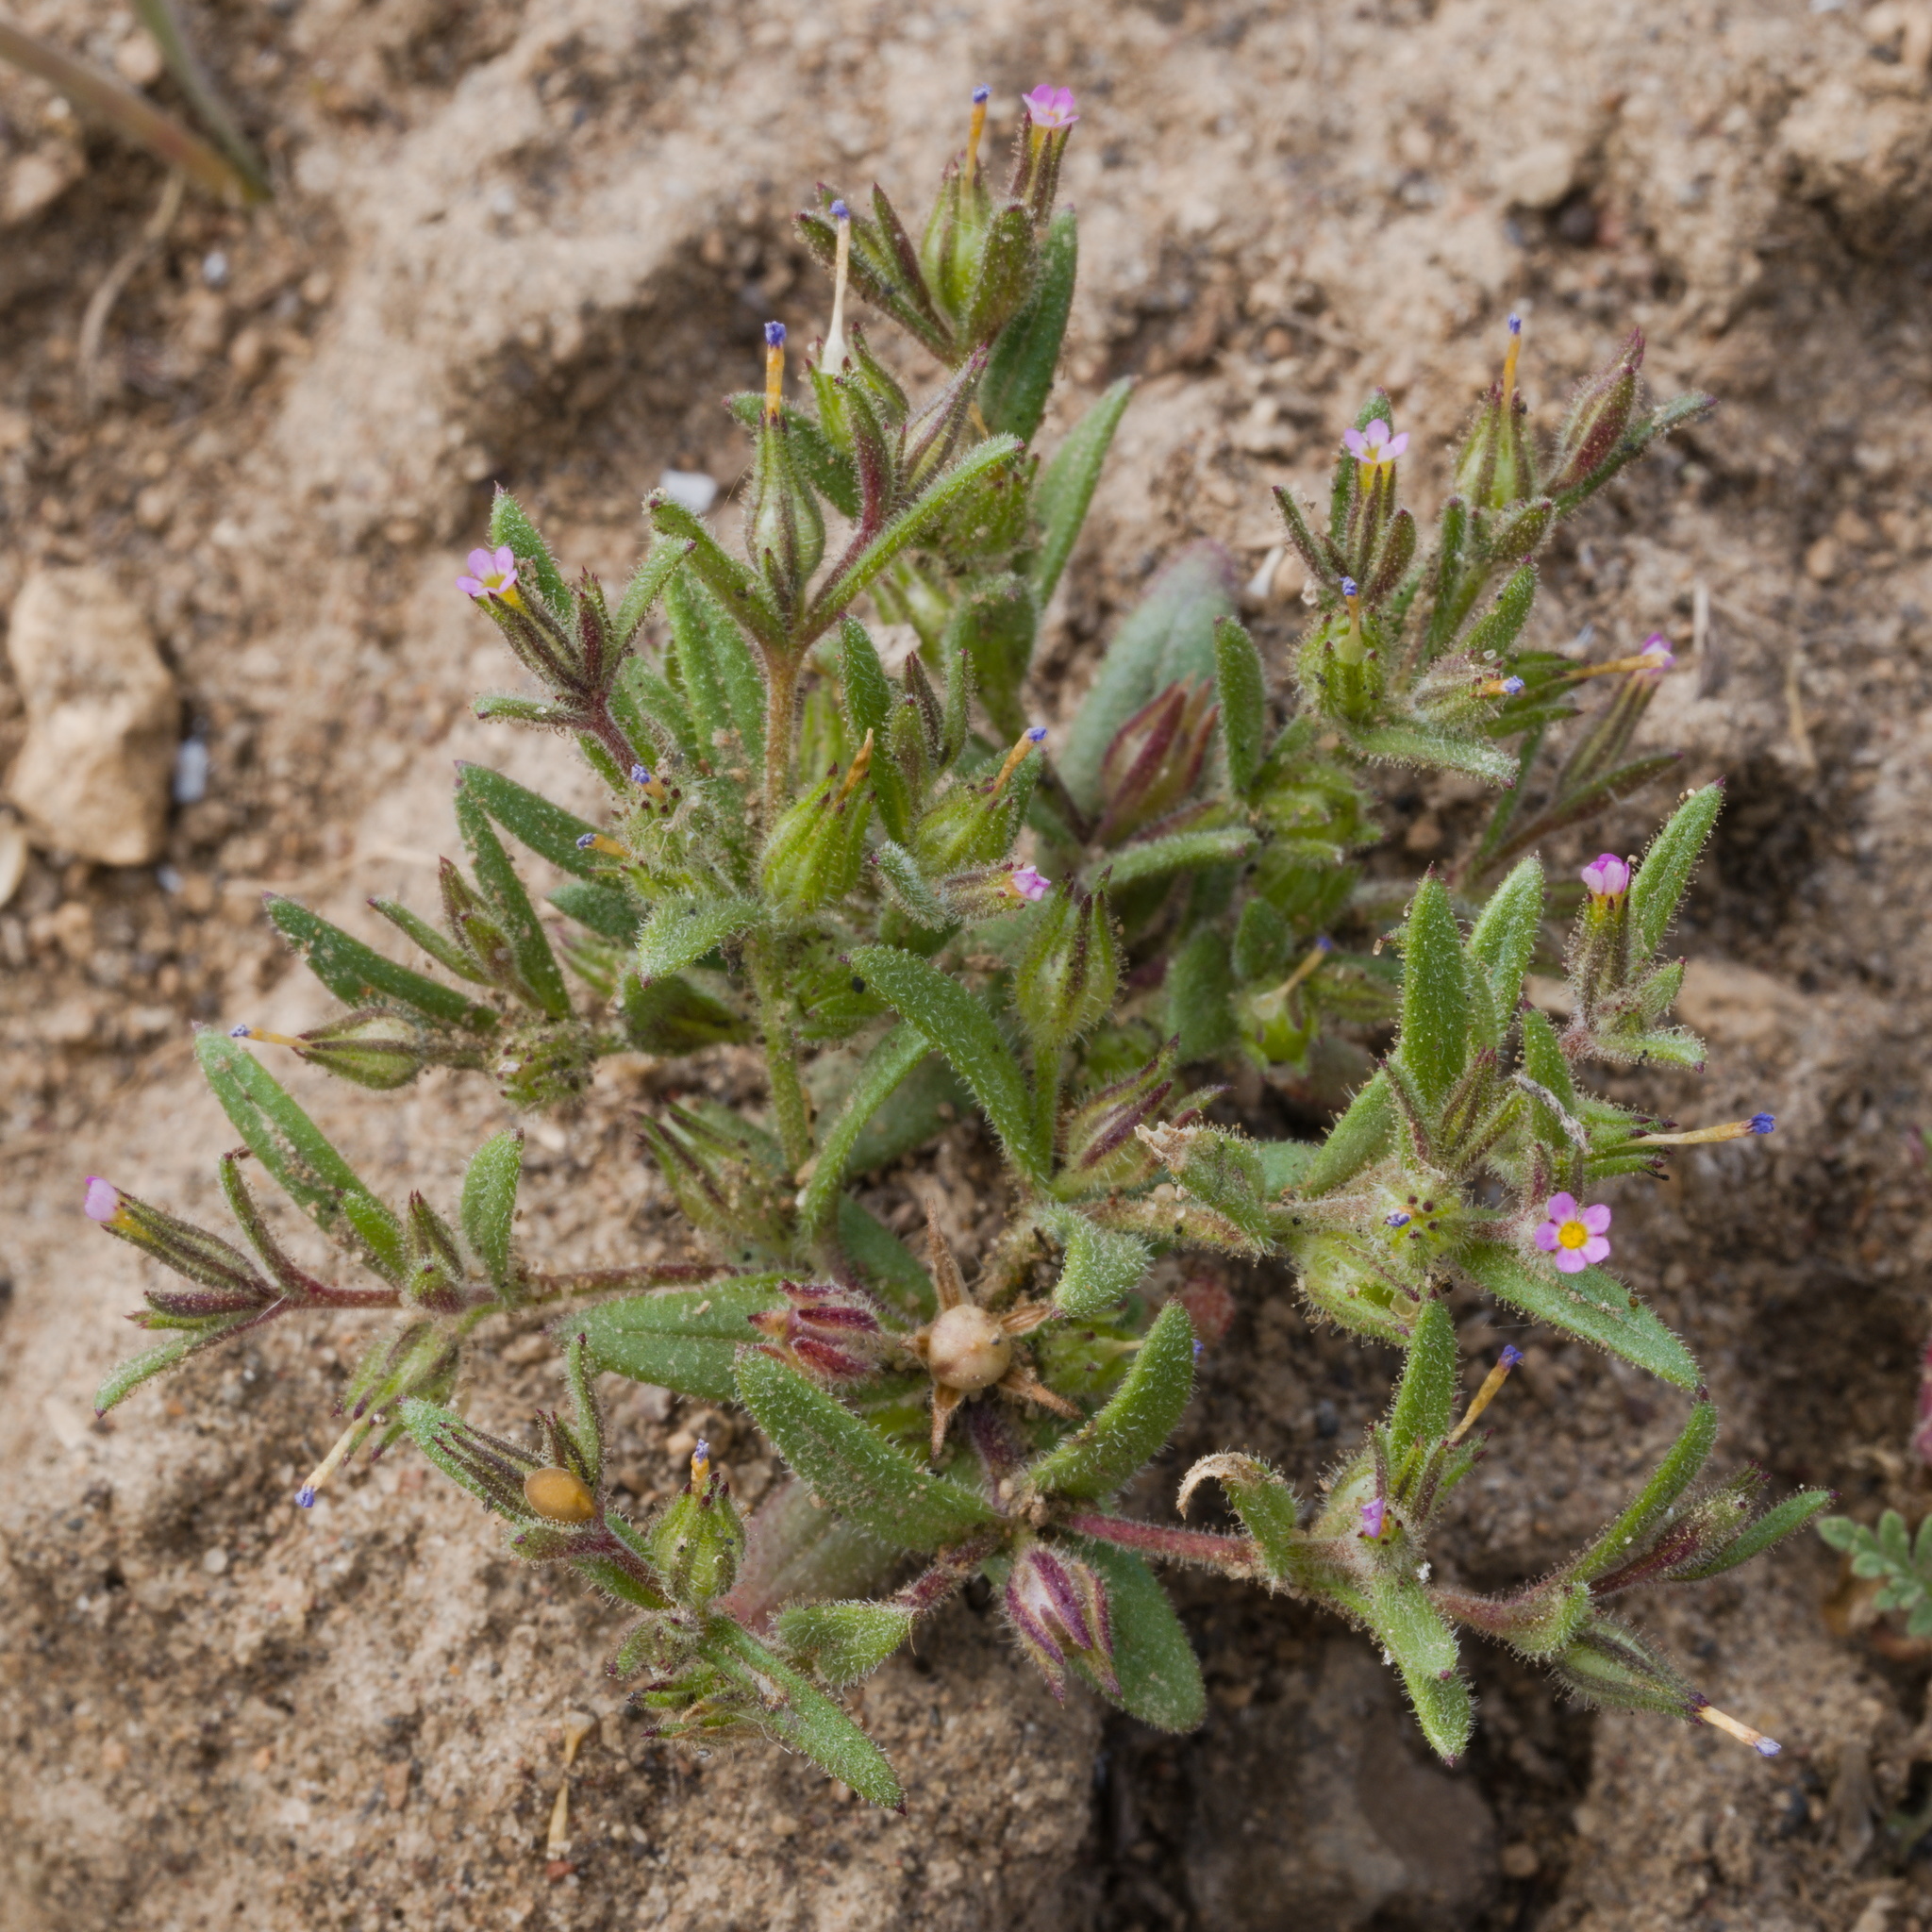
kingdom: Plantae
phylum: Tracheophyta
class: Magnoliopsida
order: Ericales
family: Polemoniaceae
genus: Phlox
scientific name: Phlox gracilis
